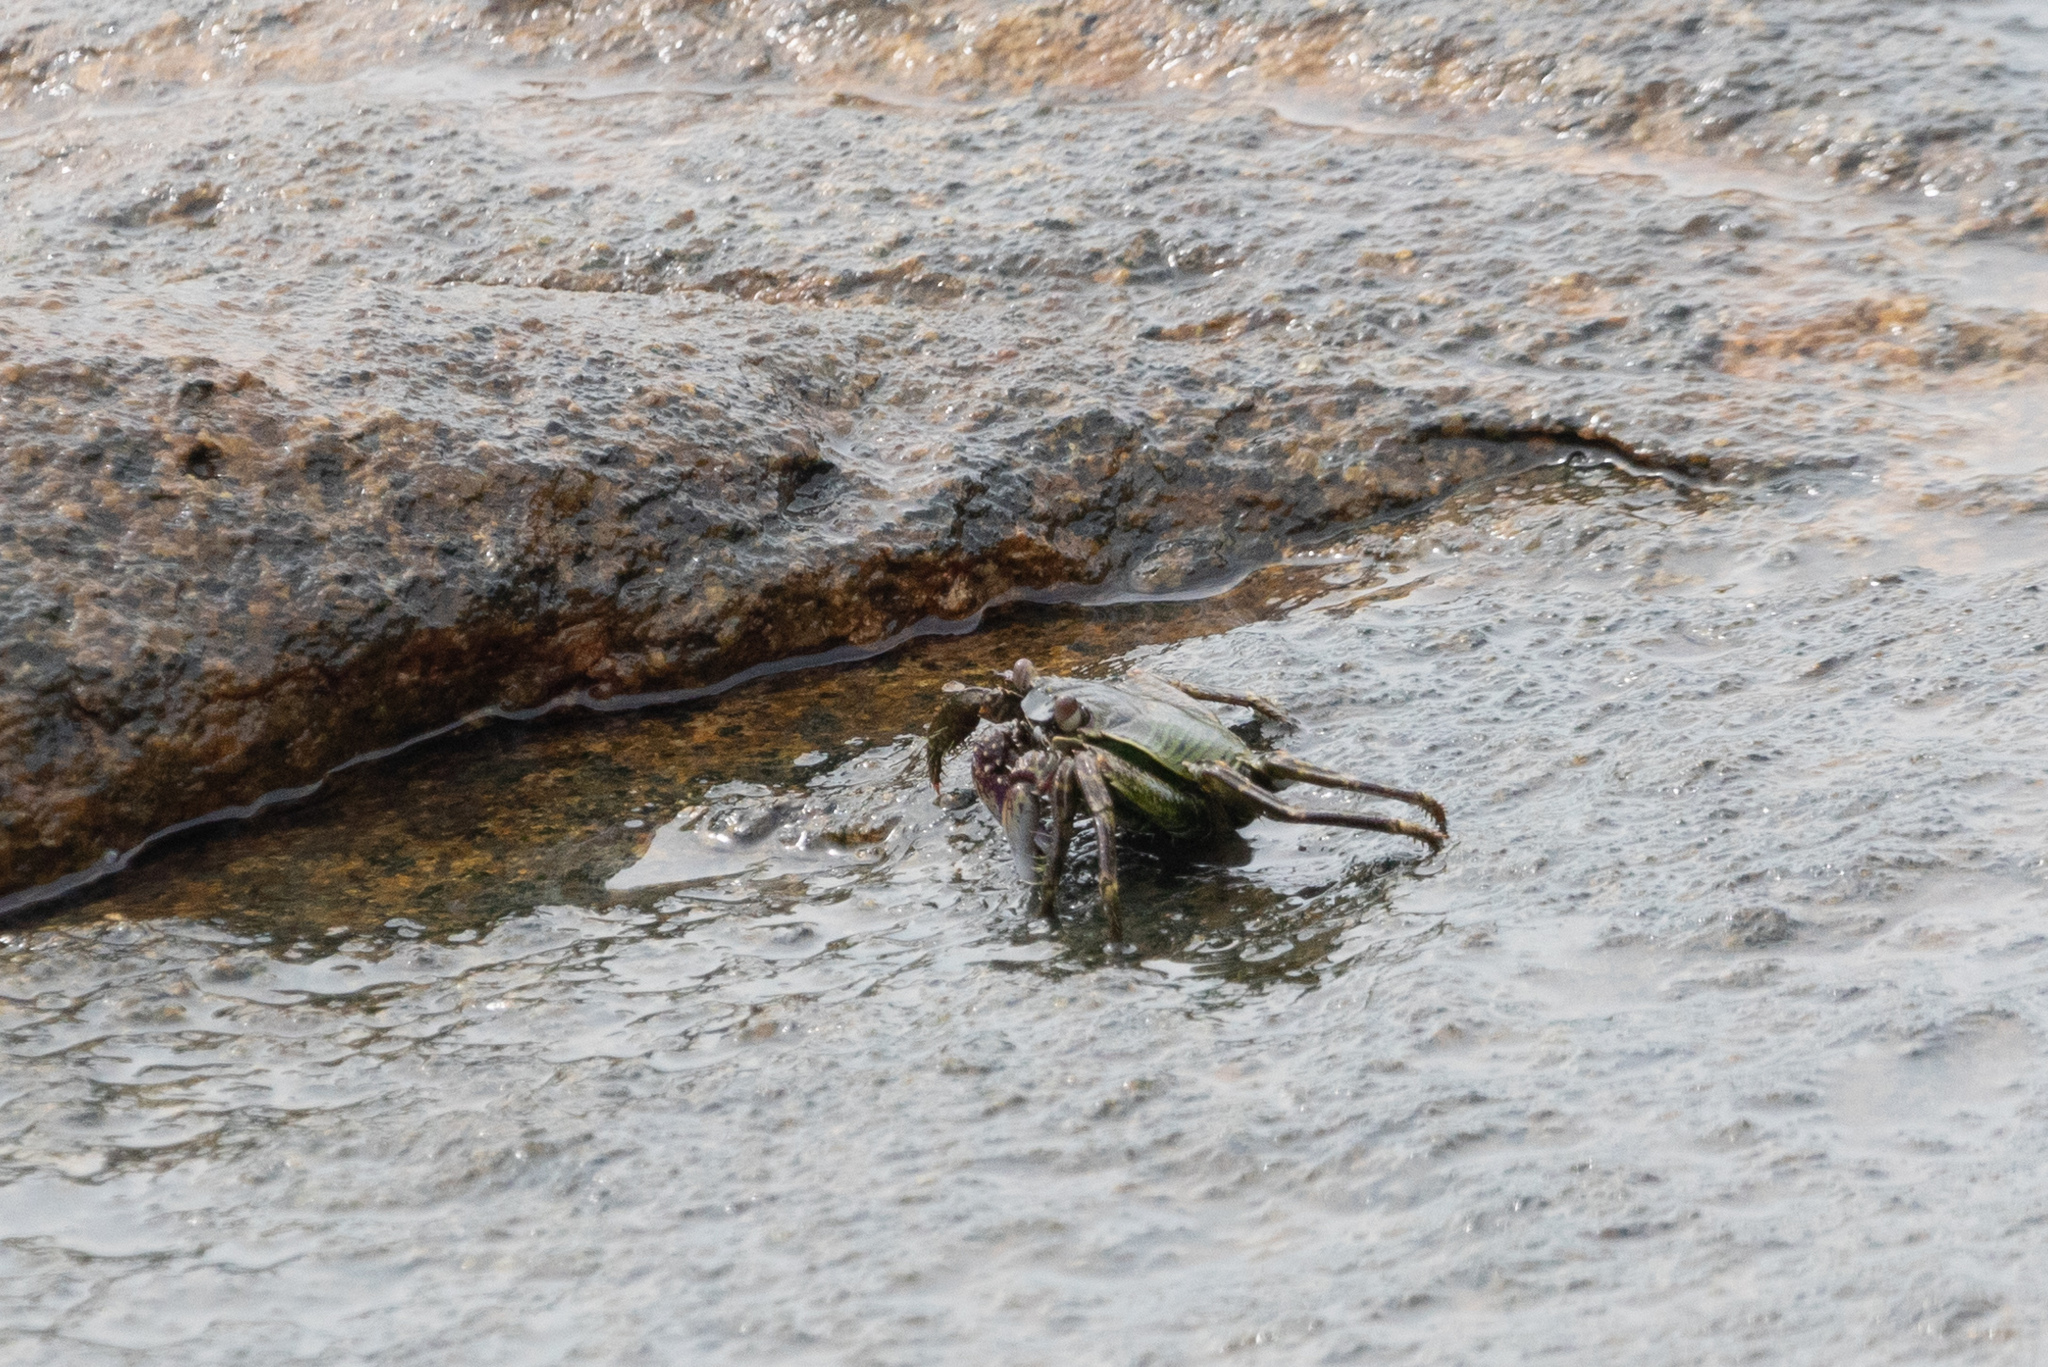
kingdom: Animalia
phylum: Arthropoda
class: Malacostraca
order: Decapoda
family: Grapsidae
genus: Grapsus
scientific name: Grapsus albolineatus
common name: Mottled lightfoot crab
